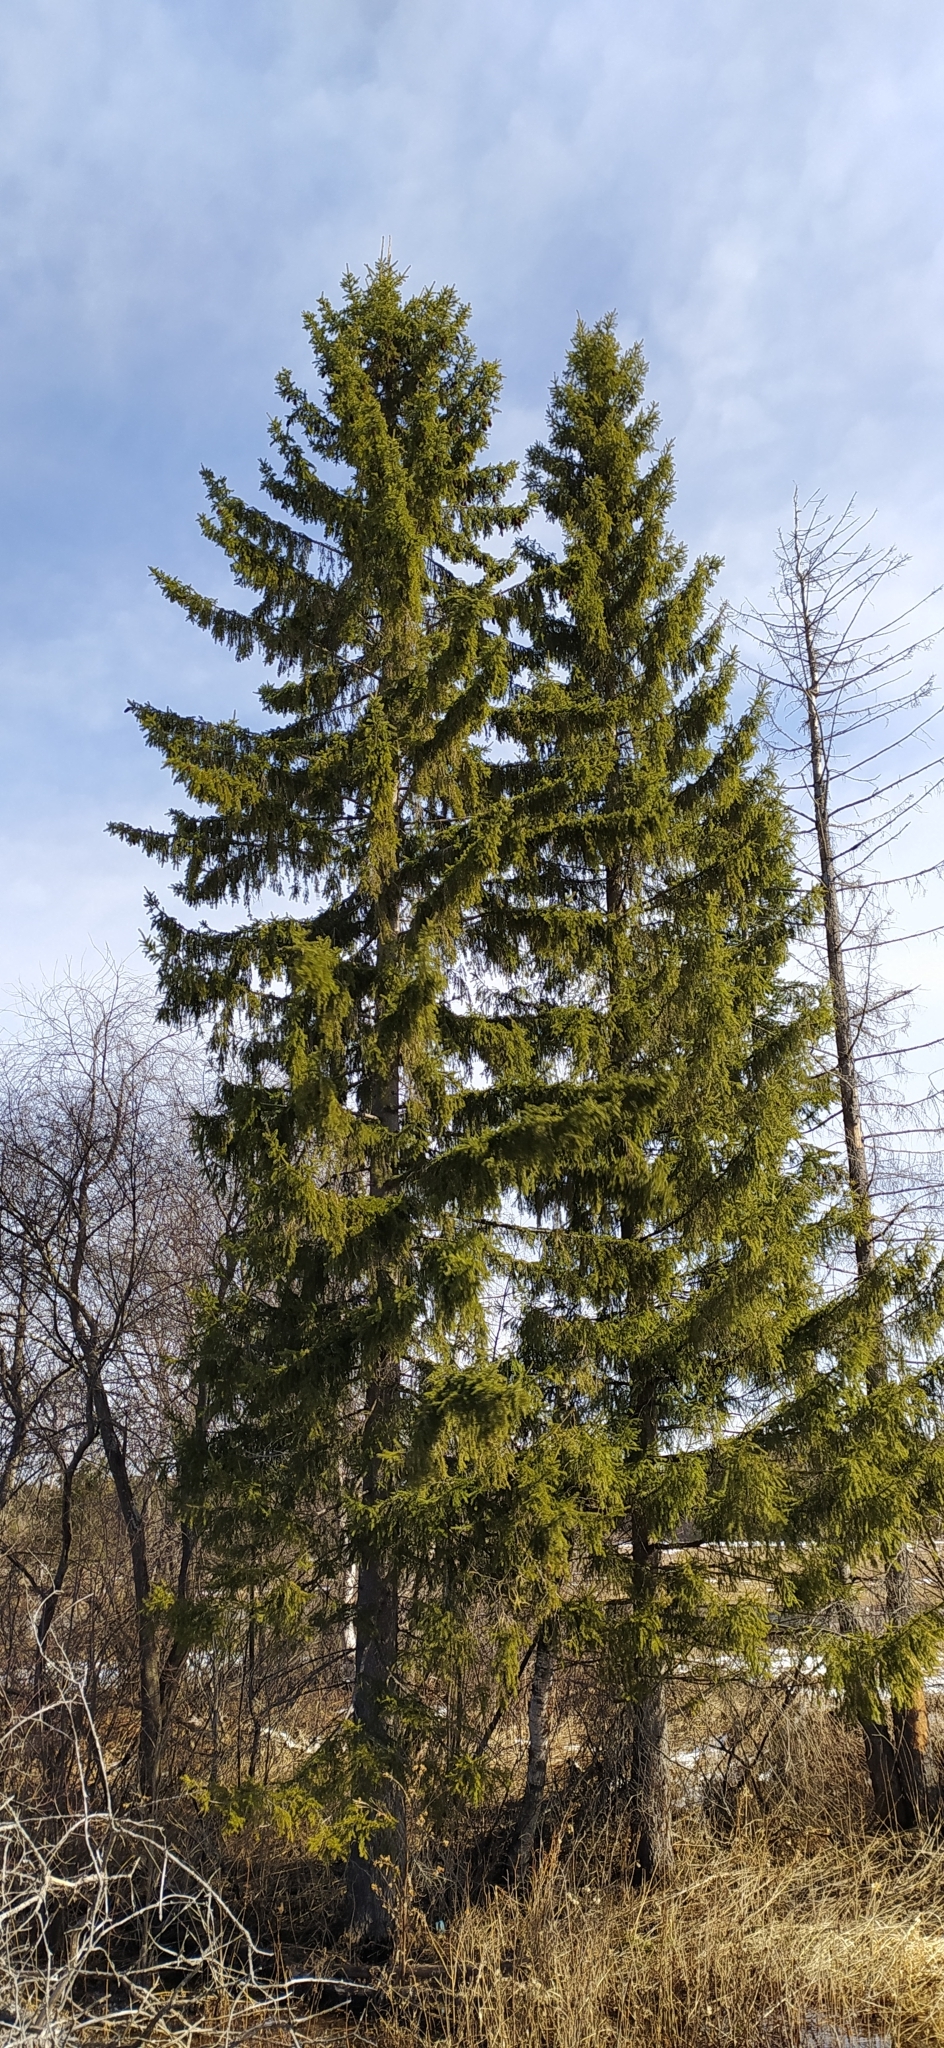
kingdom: Plantae
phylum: Tracheophyta
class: Pinopsida
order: Pinales
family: Pinaceae
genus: Picea
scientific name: Picea obovata
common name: Siberian spruce
